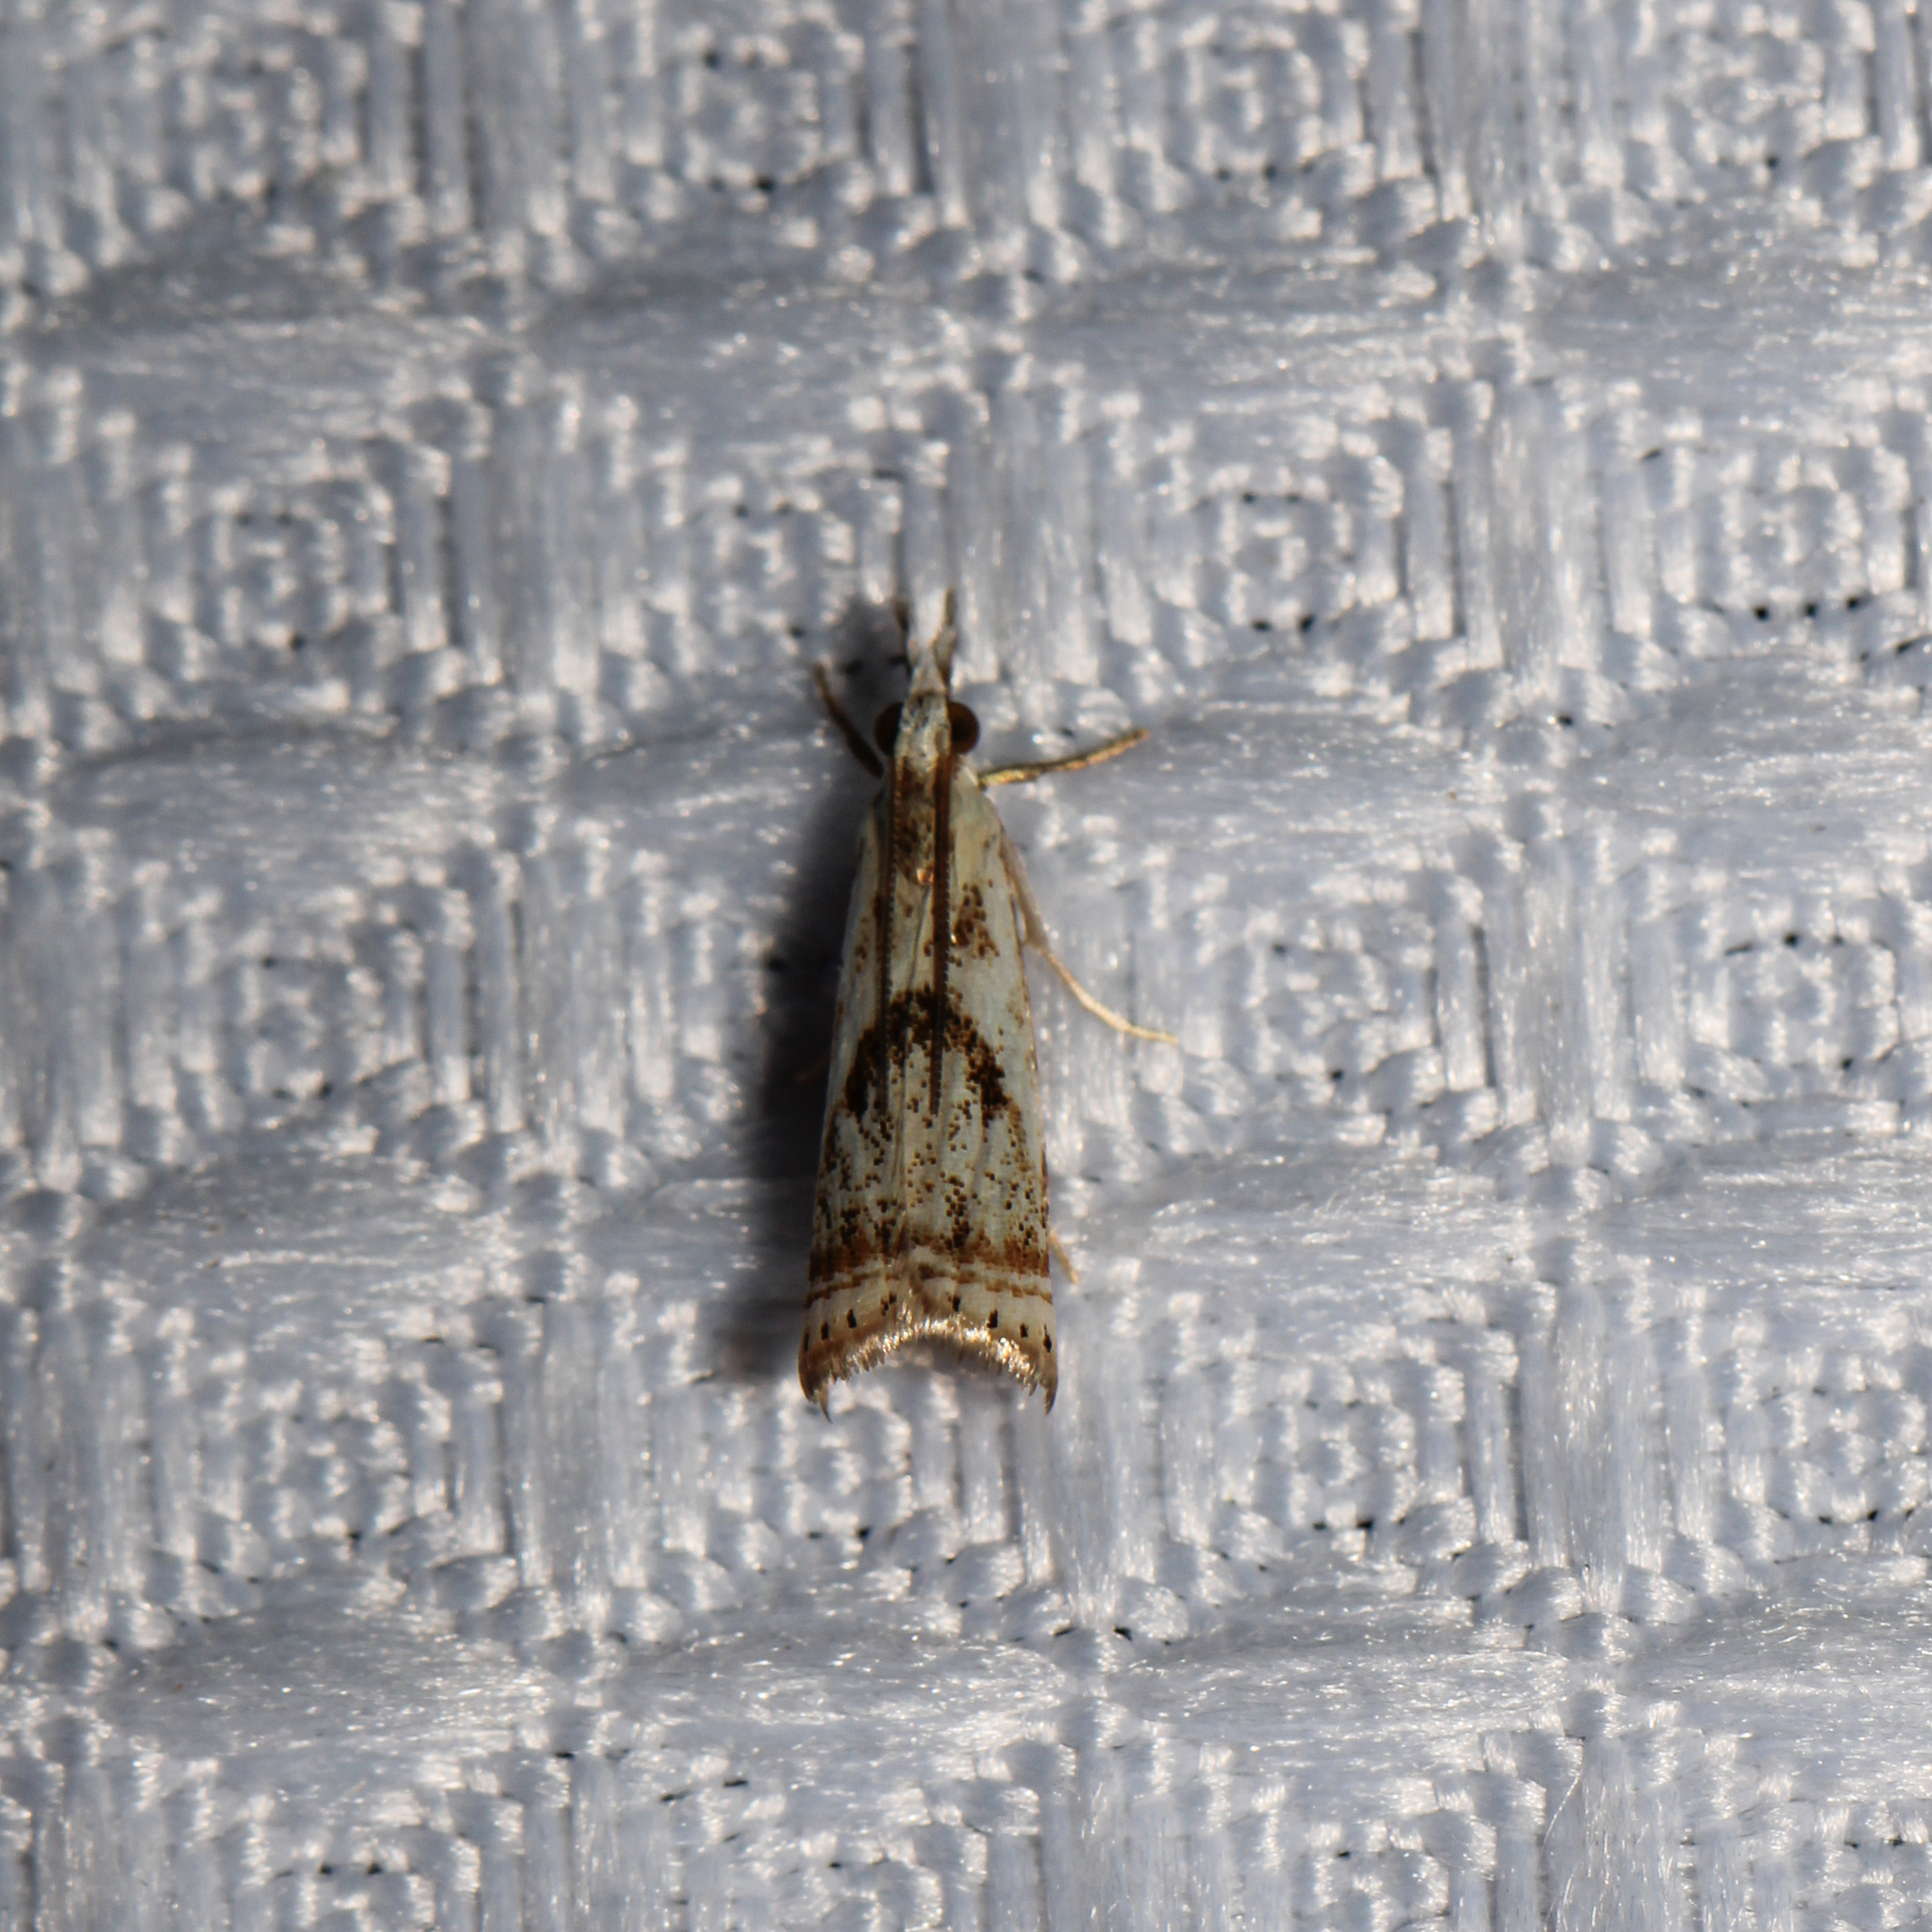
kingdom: Animalia
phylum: Arthropoda
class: Insecta
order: Lepidoptera
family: Crambidae
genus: Microcrambus
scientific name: Microcrambus elegans
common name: Elegant grass-veneer
